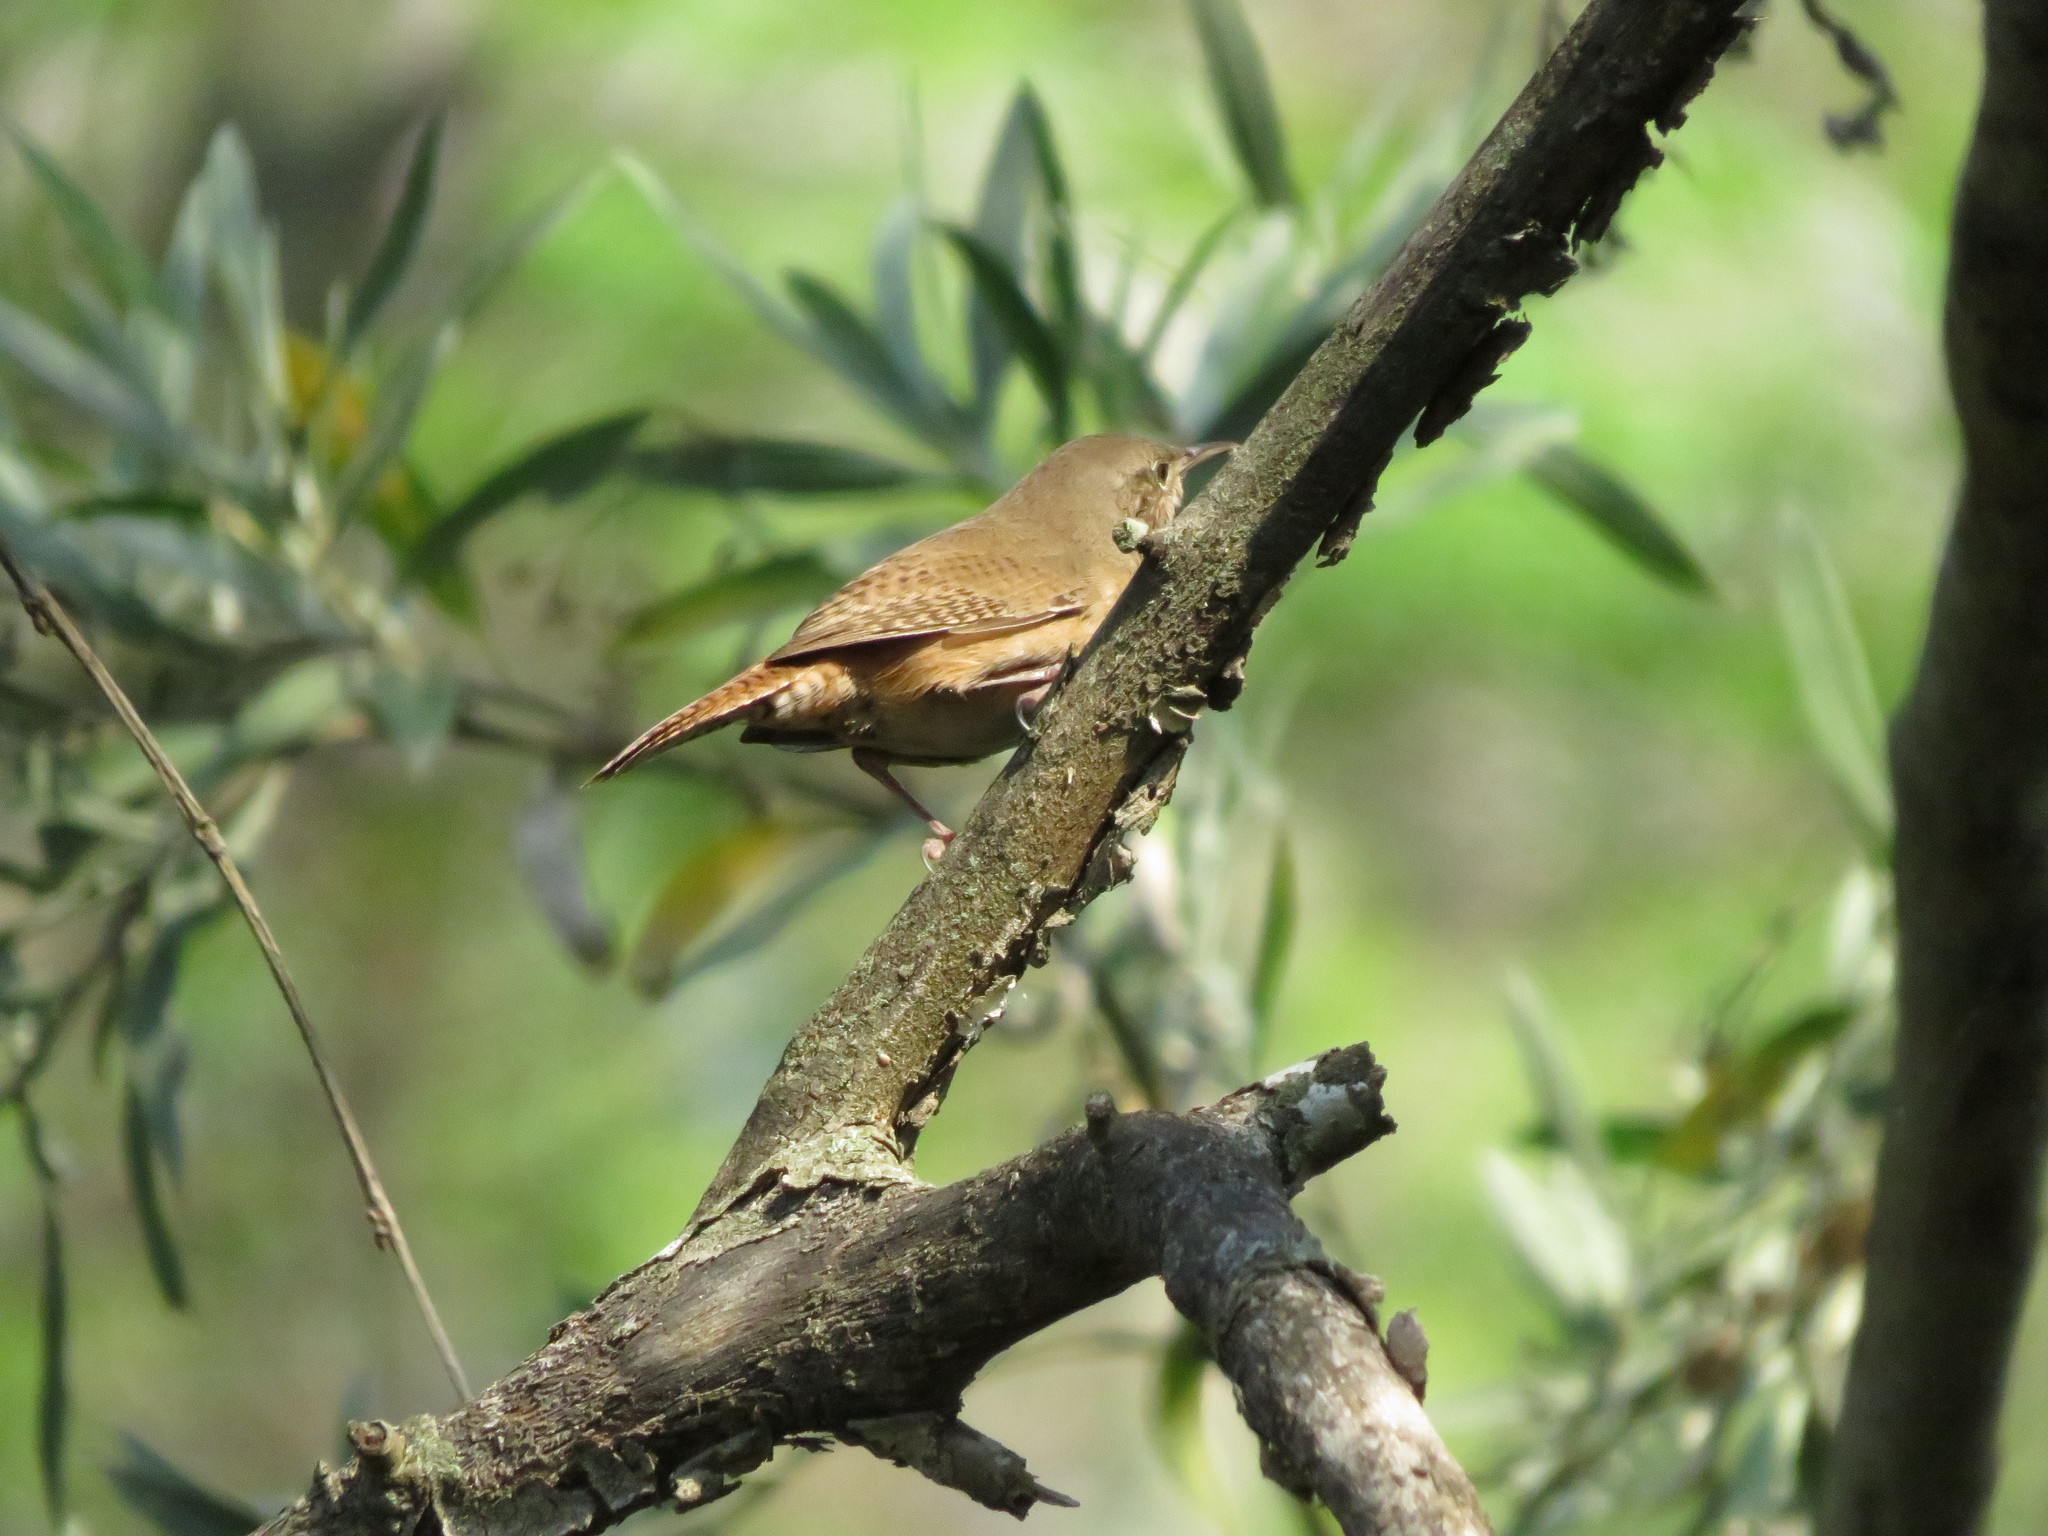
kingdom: Animalia
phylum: Chordata
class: Aves
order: Passeriformes
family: Troglodytidae
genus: Troglodytes
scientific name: Troglodytes aedon
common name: House wren
